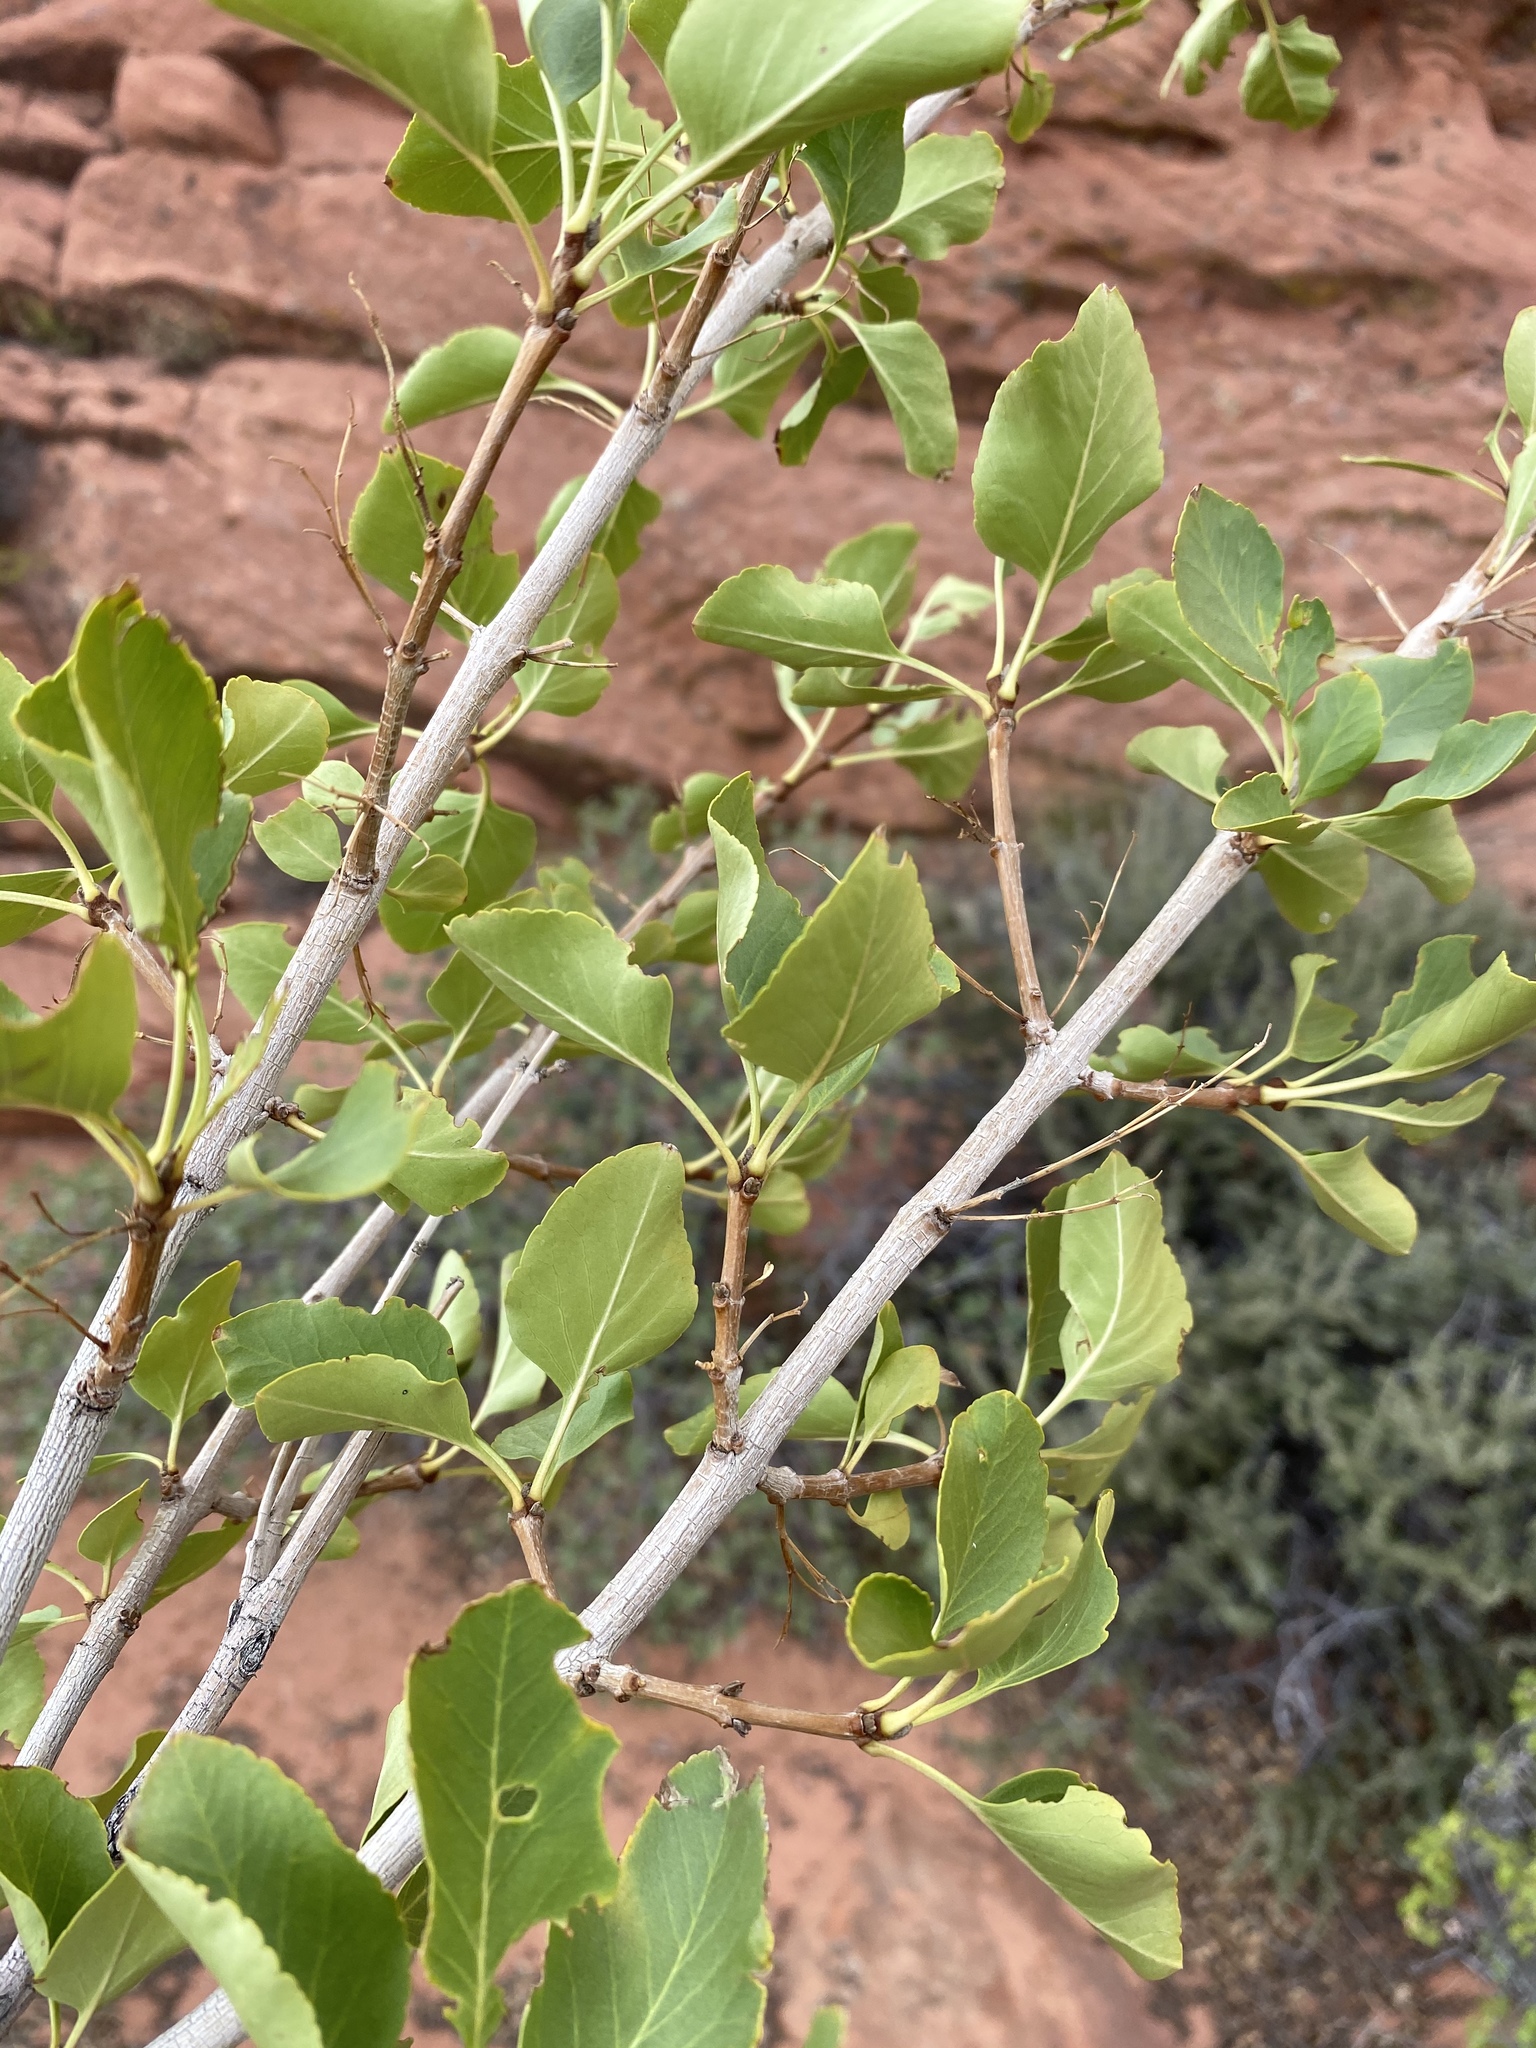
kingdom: Plantae
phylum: Tracheophyta
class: Magnoliopsida
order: Lamiales
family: Oleaceae
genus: Fraxinus
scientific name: Fraxinus anomala
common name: Utah ash
